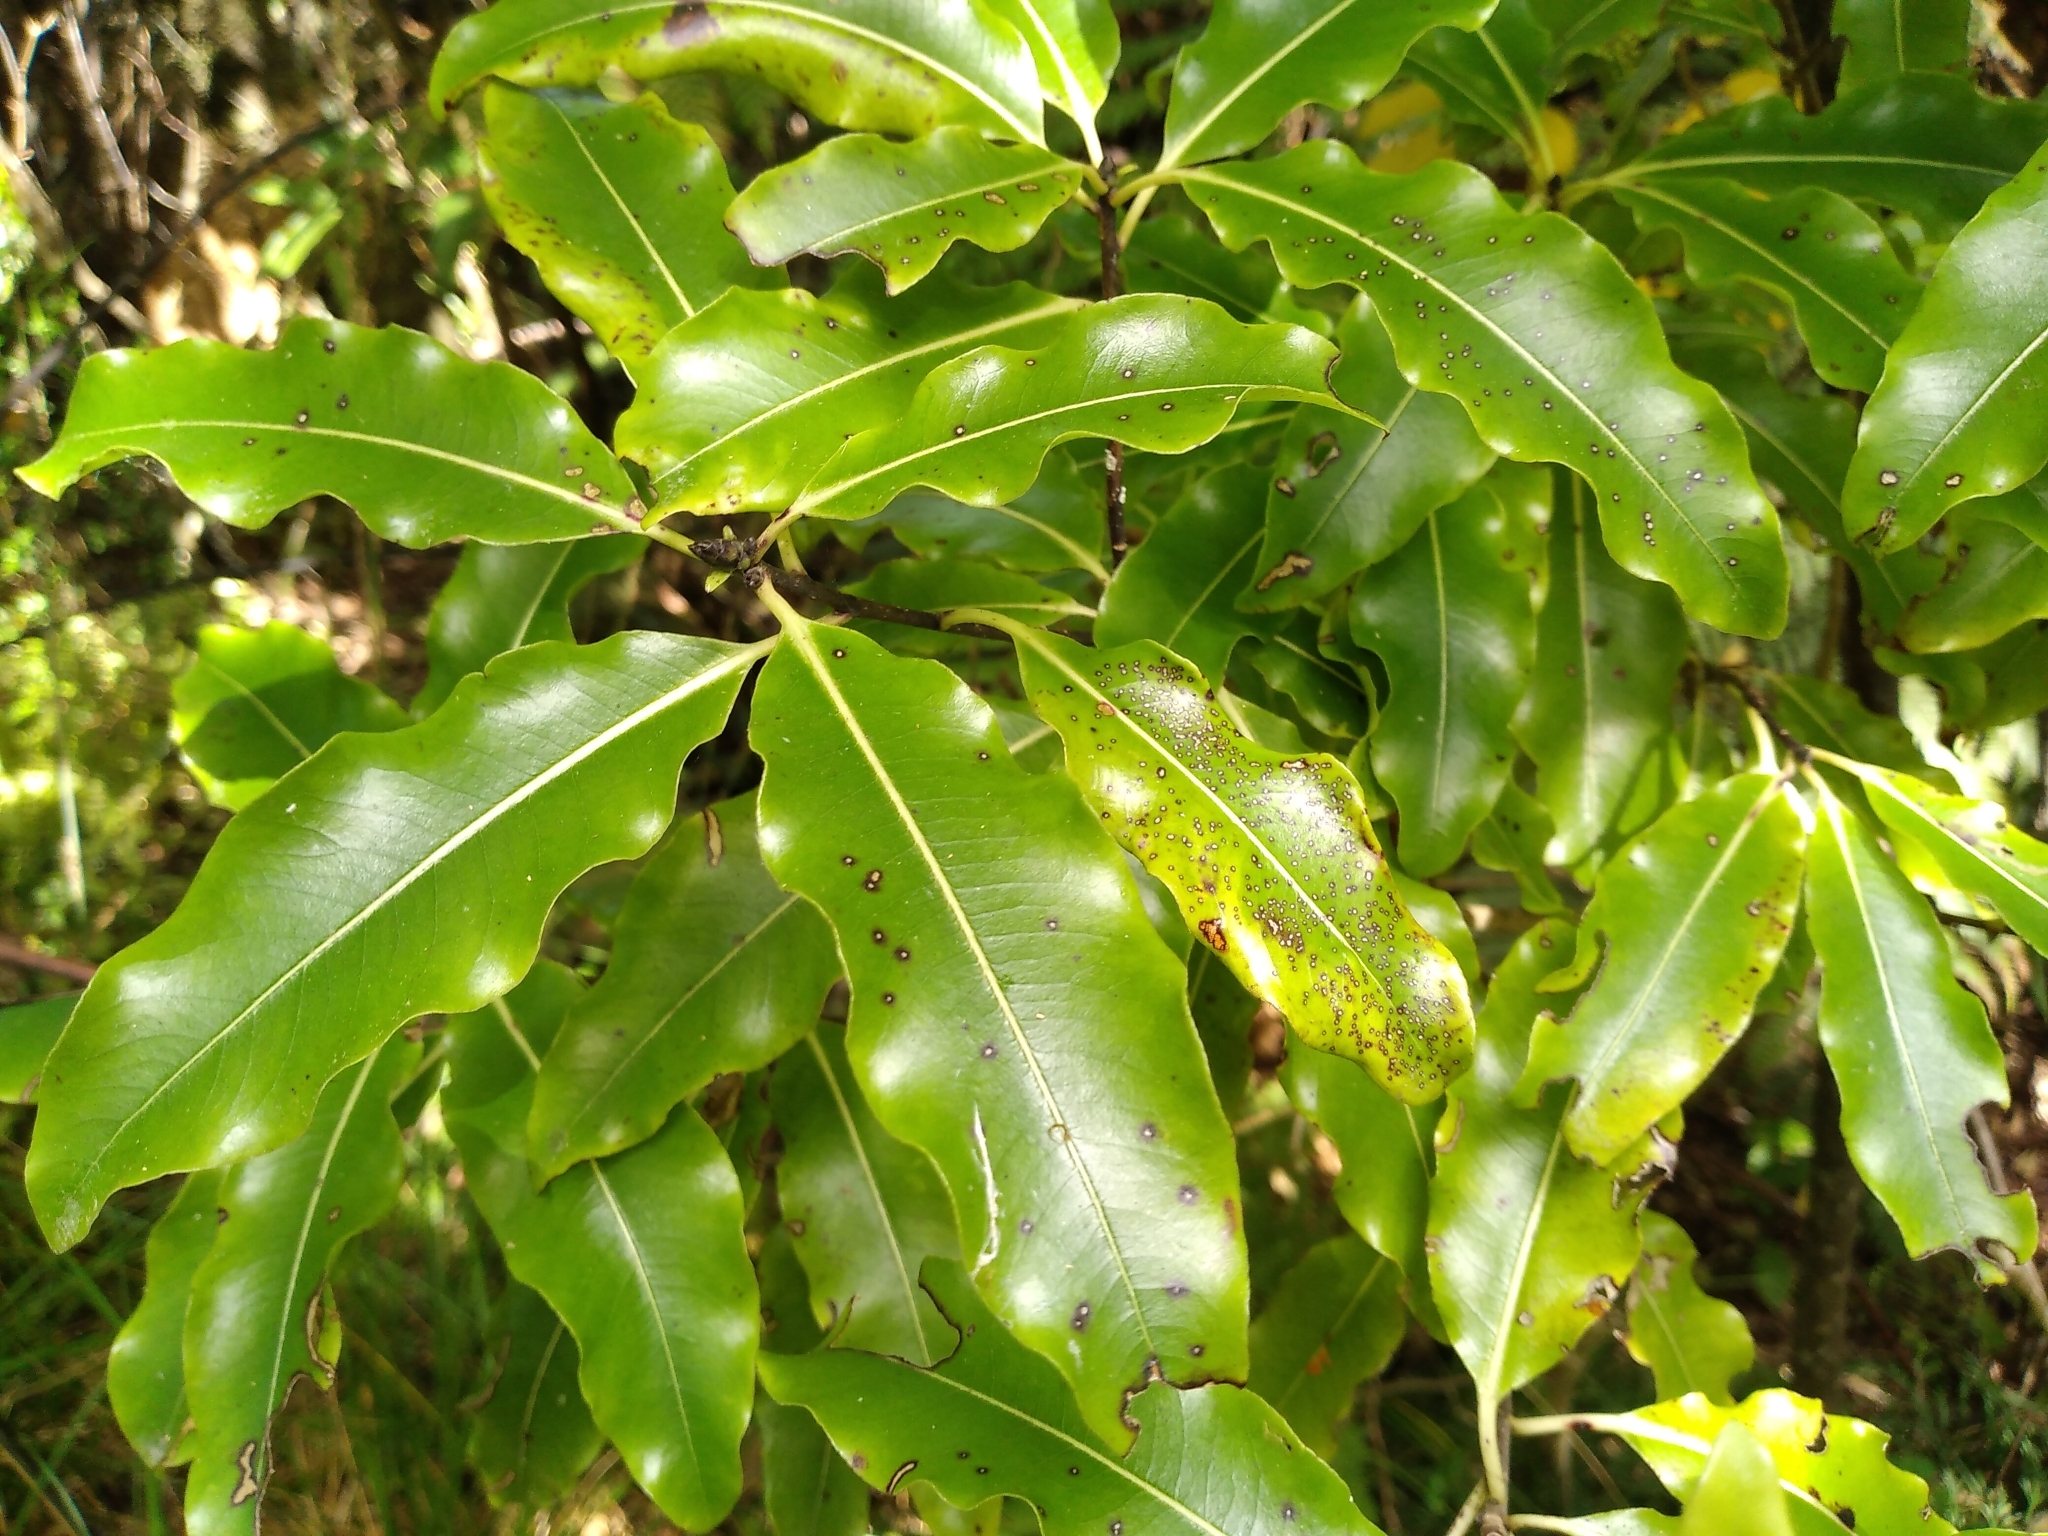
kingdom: Plantae
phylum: Tracheophyta
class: Magnoliopsida
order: Apiales
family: Pittosporaceae
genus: Pittosporum
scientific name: Pittosporum eugenioides
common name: Lemonwood
